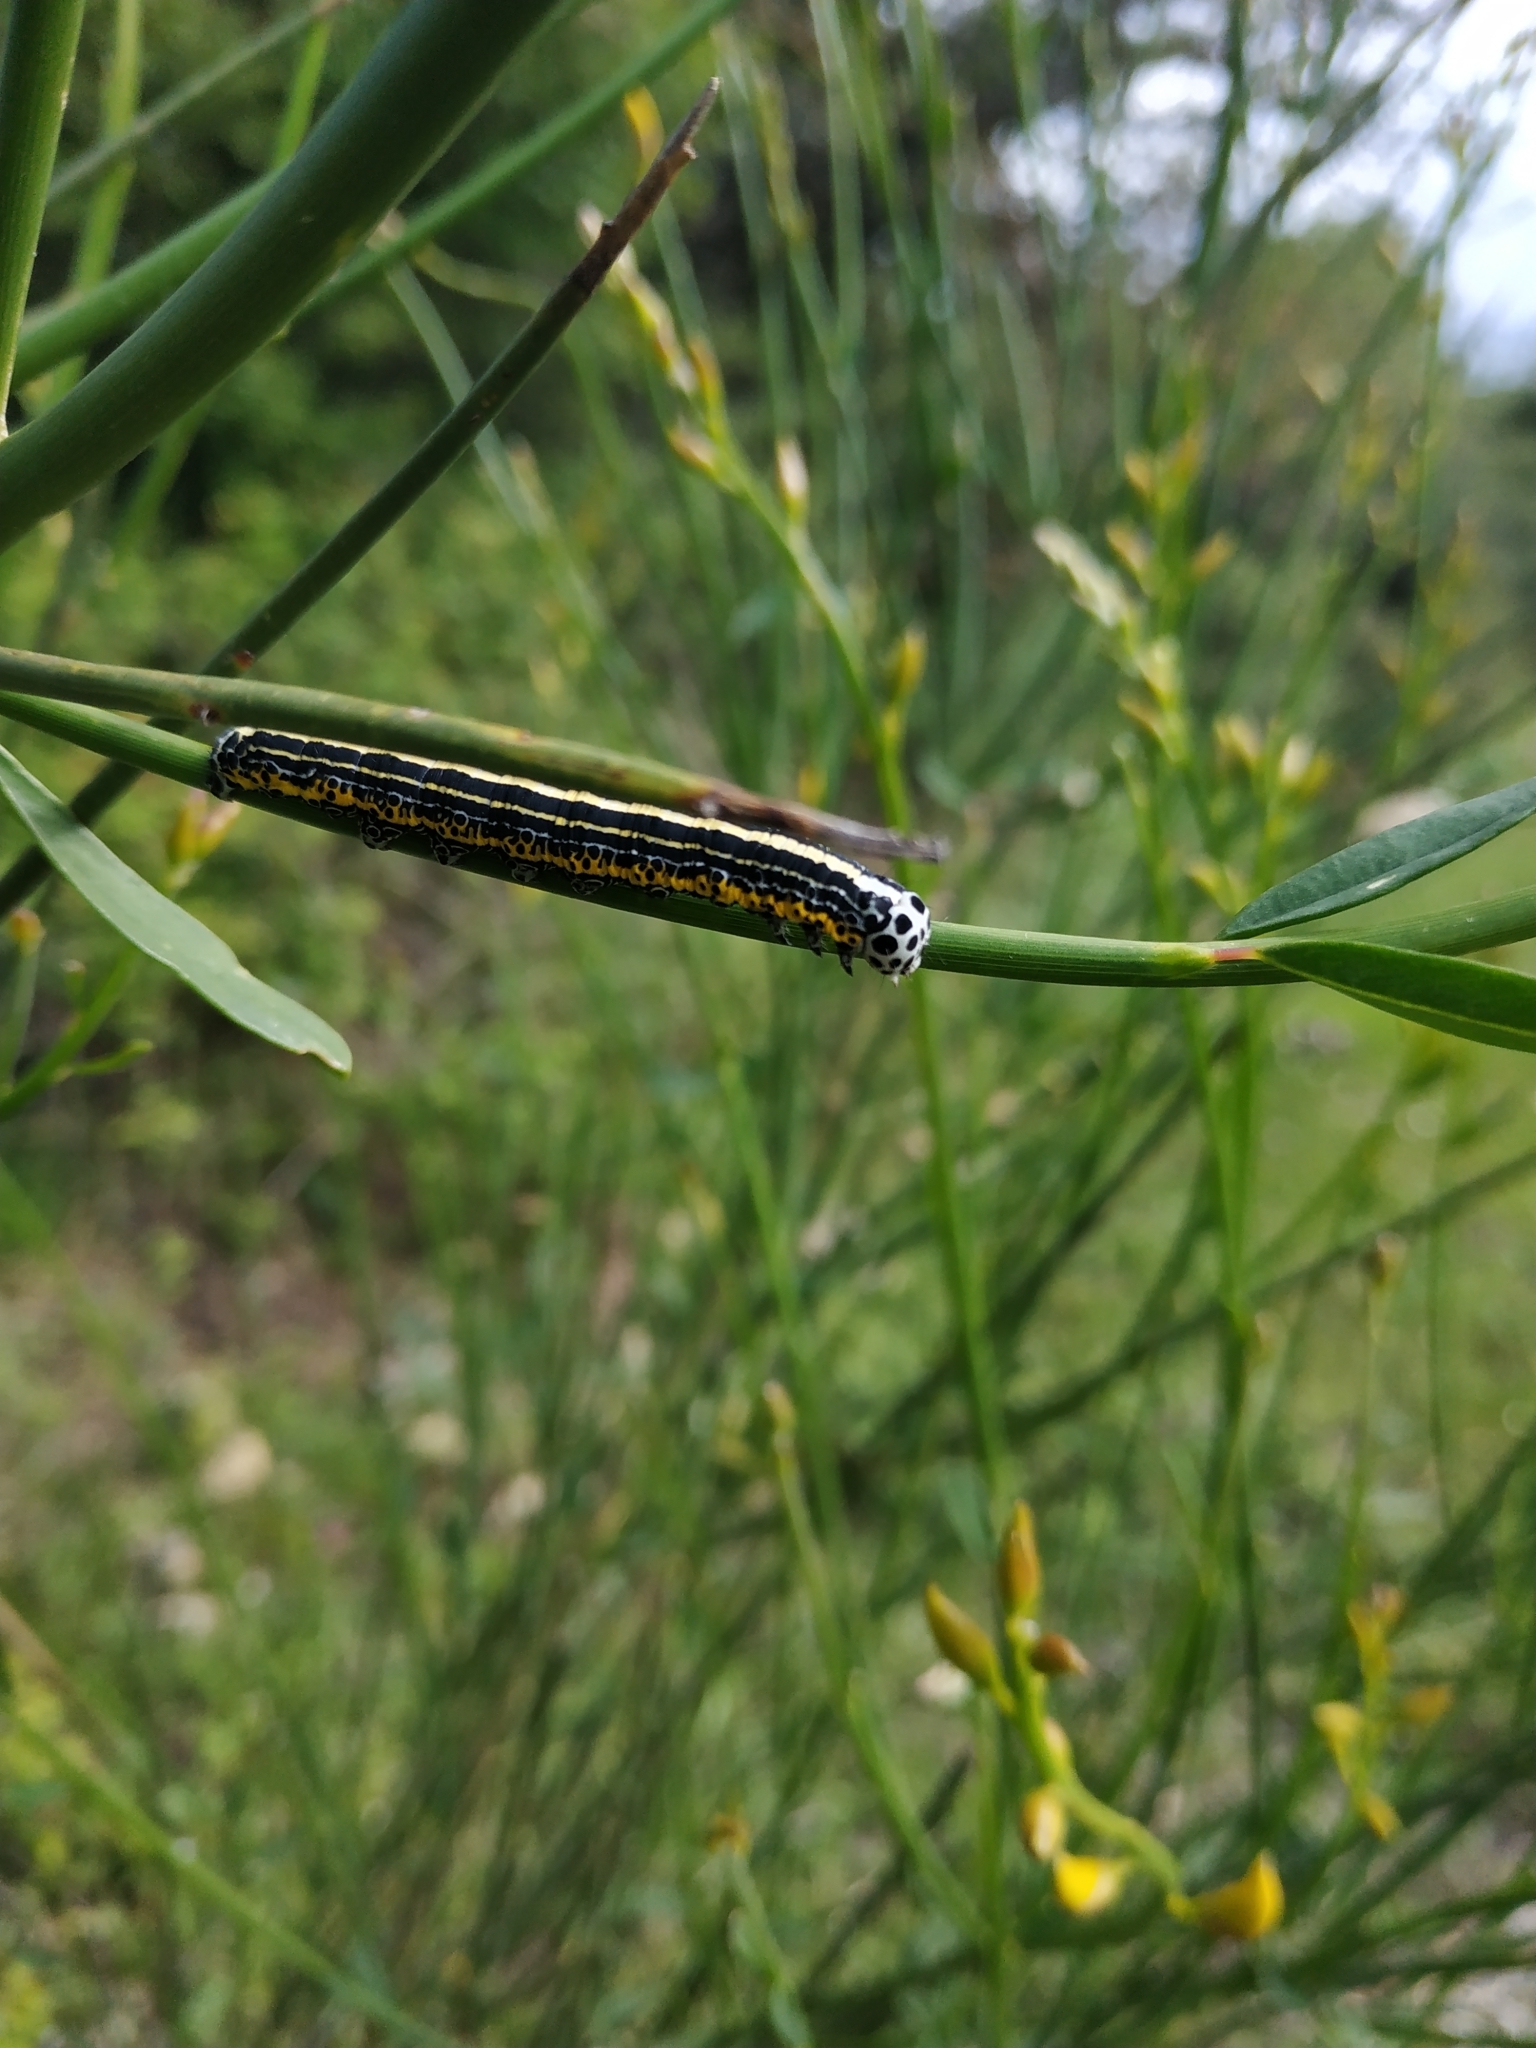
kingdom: Animalia
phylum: Arthropoda
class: Insecta
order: Lepidoptera
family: Erebidae
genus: Apopestes
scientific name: Apopestes spectrum
